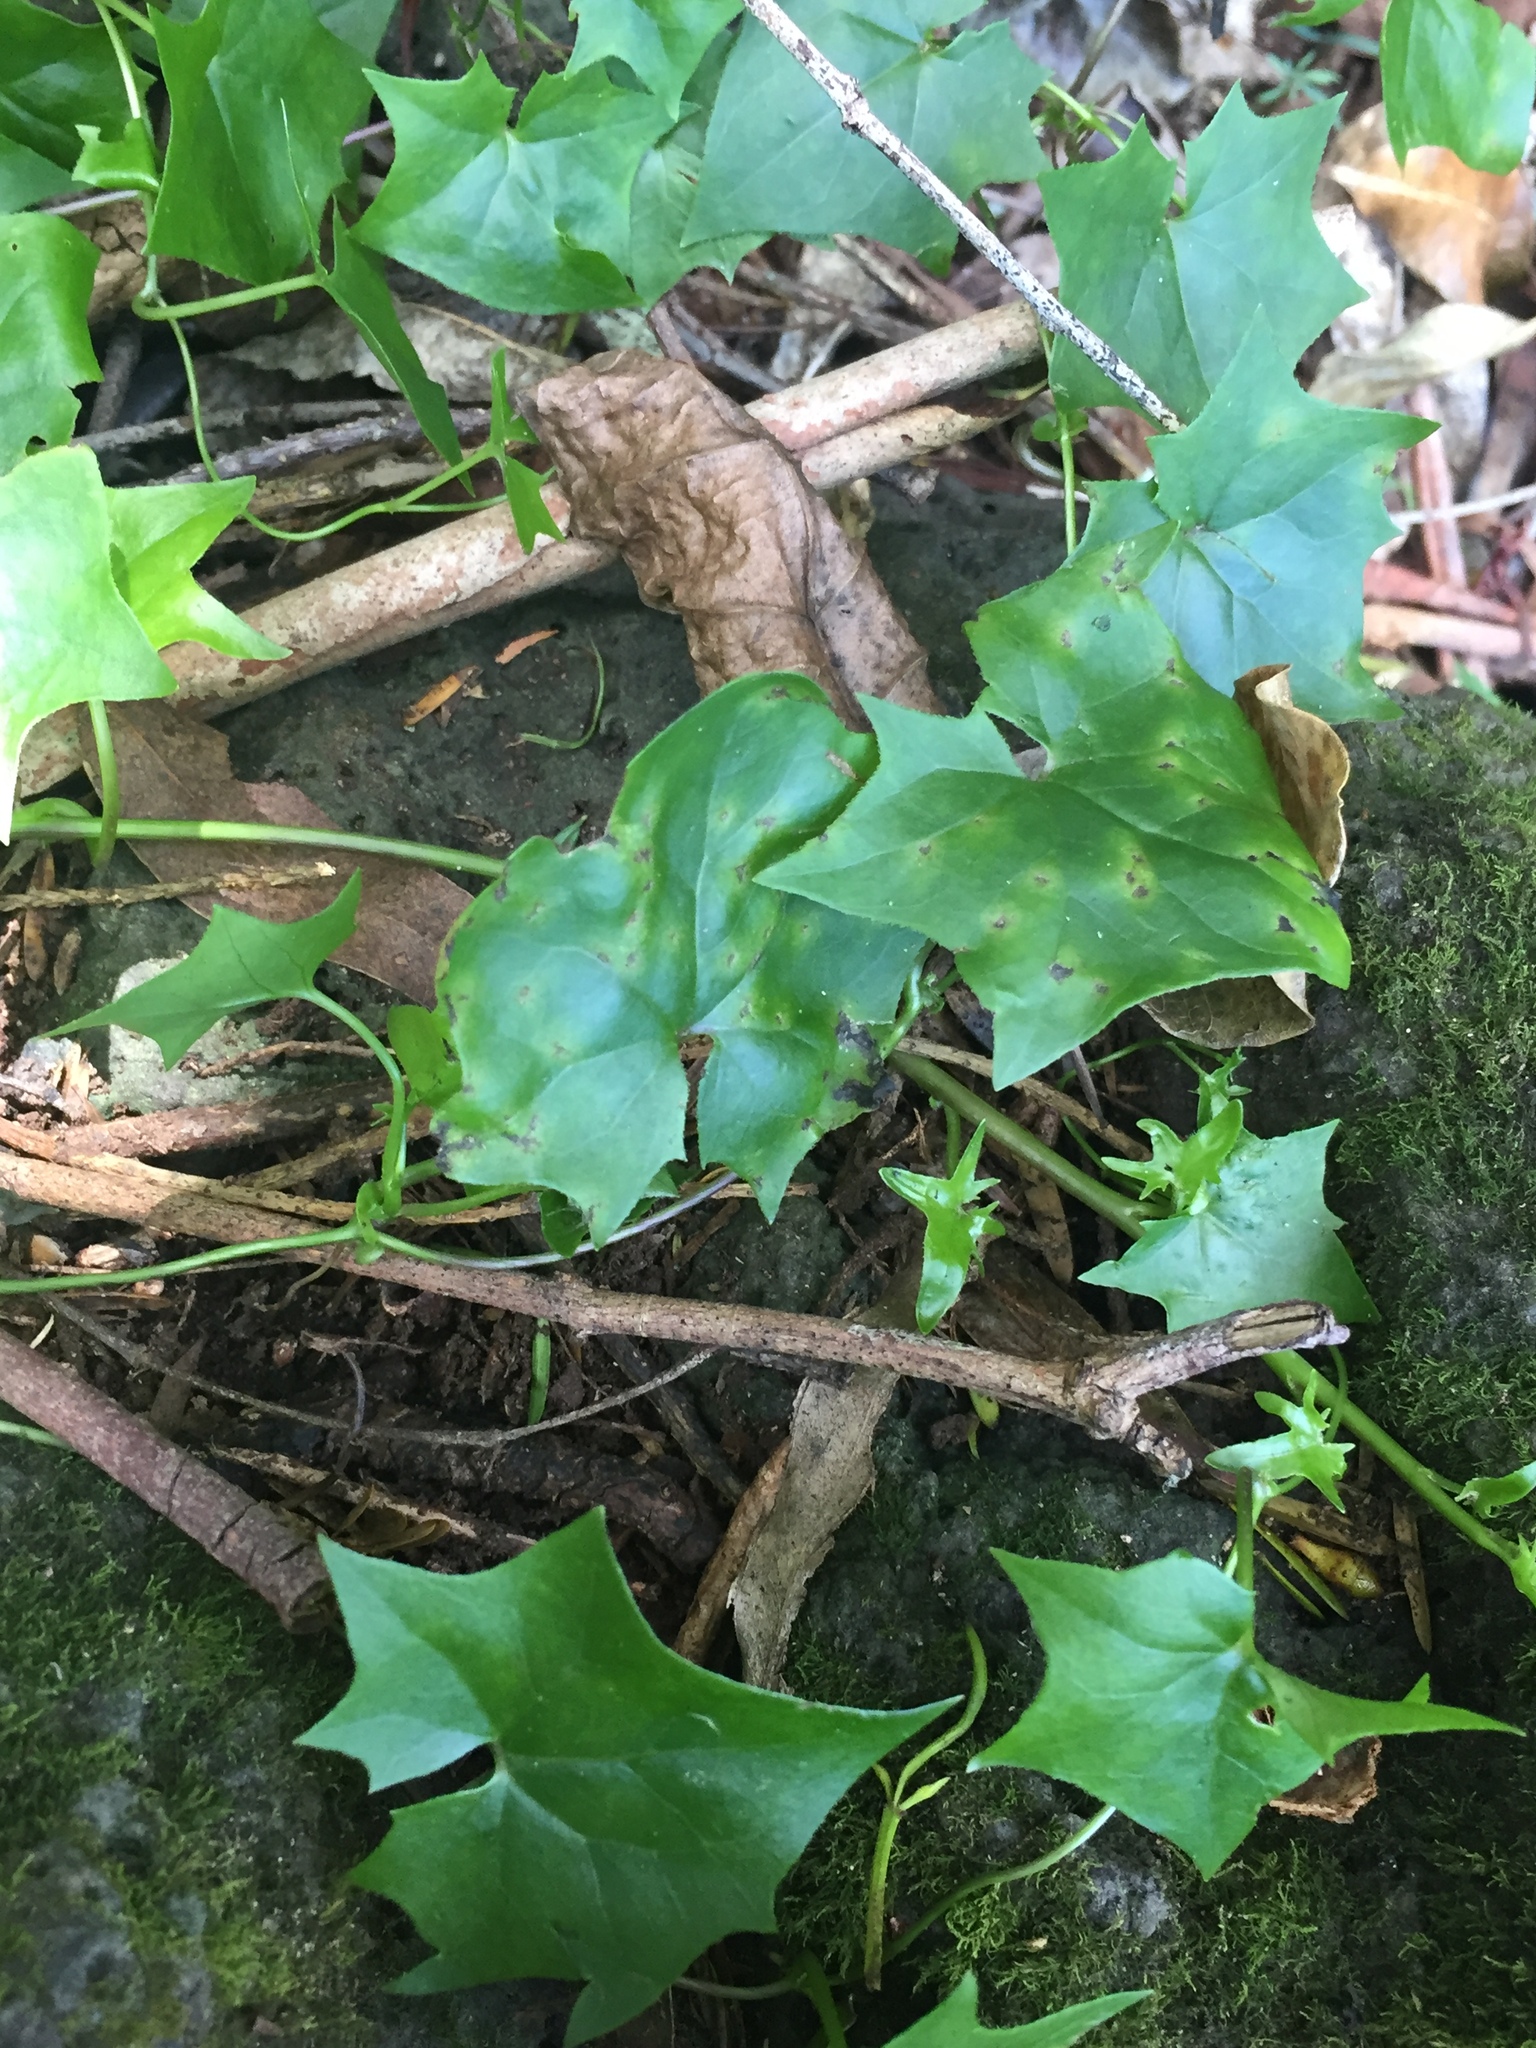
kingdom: Fungi
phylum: Basidiomycota
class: Pucciniomycetes
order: Pucciniales
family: Coleosporiaceae
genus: Coleosporium
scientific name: Coleosporium tussilaginis
